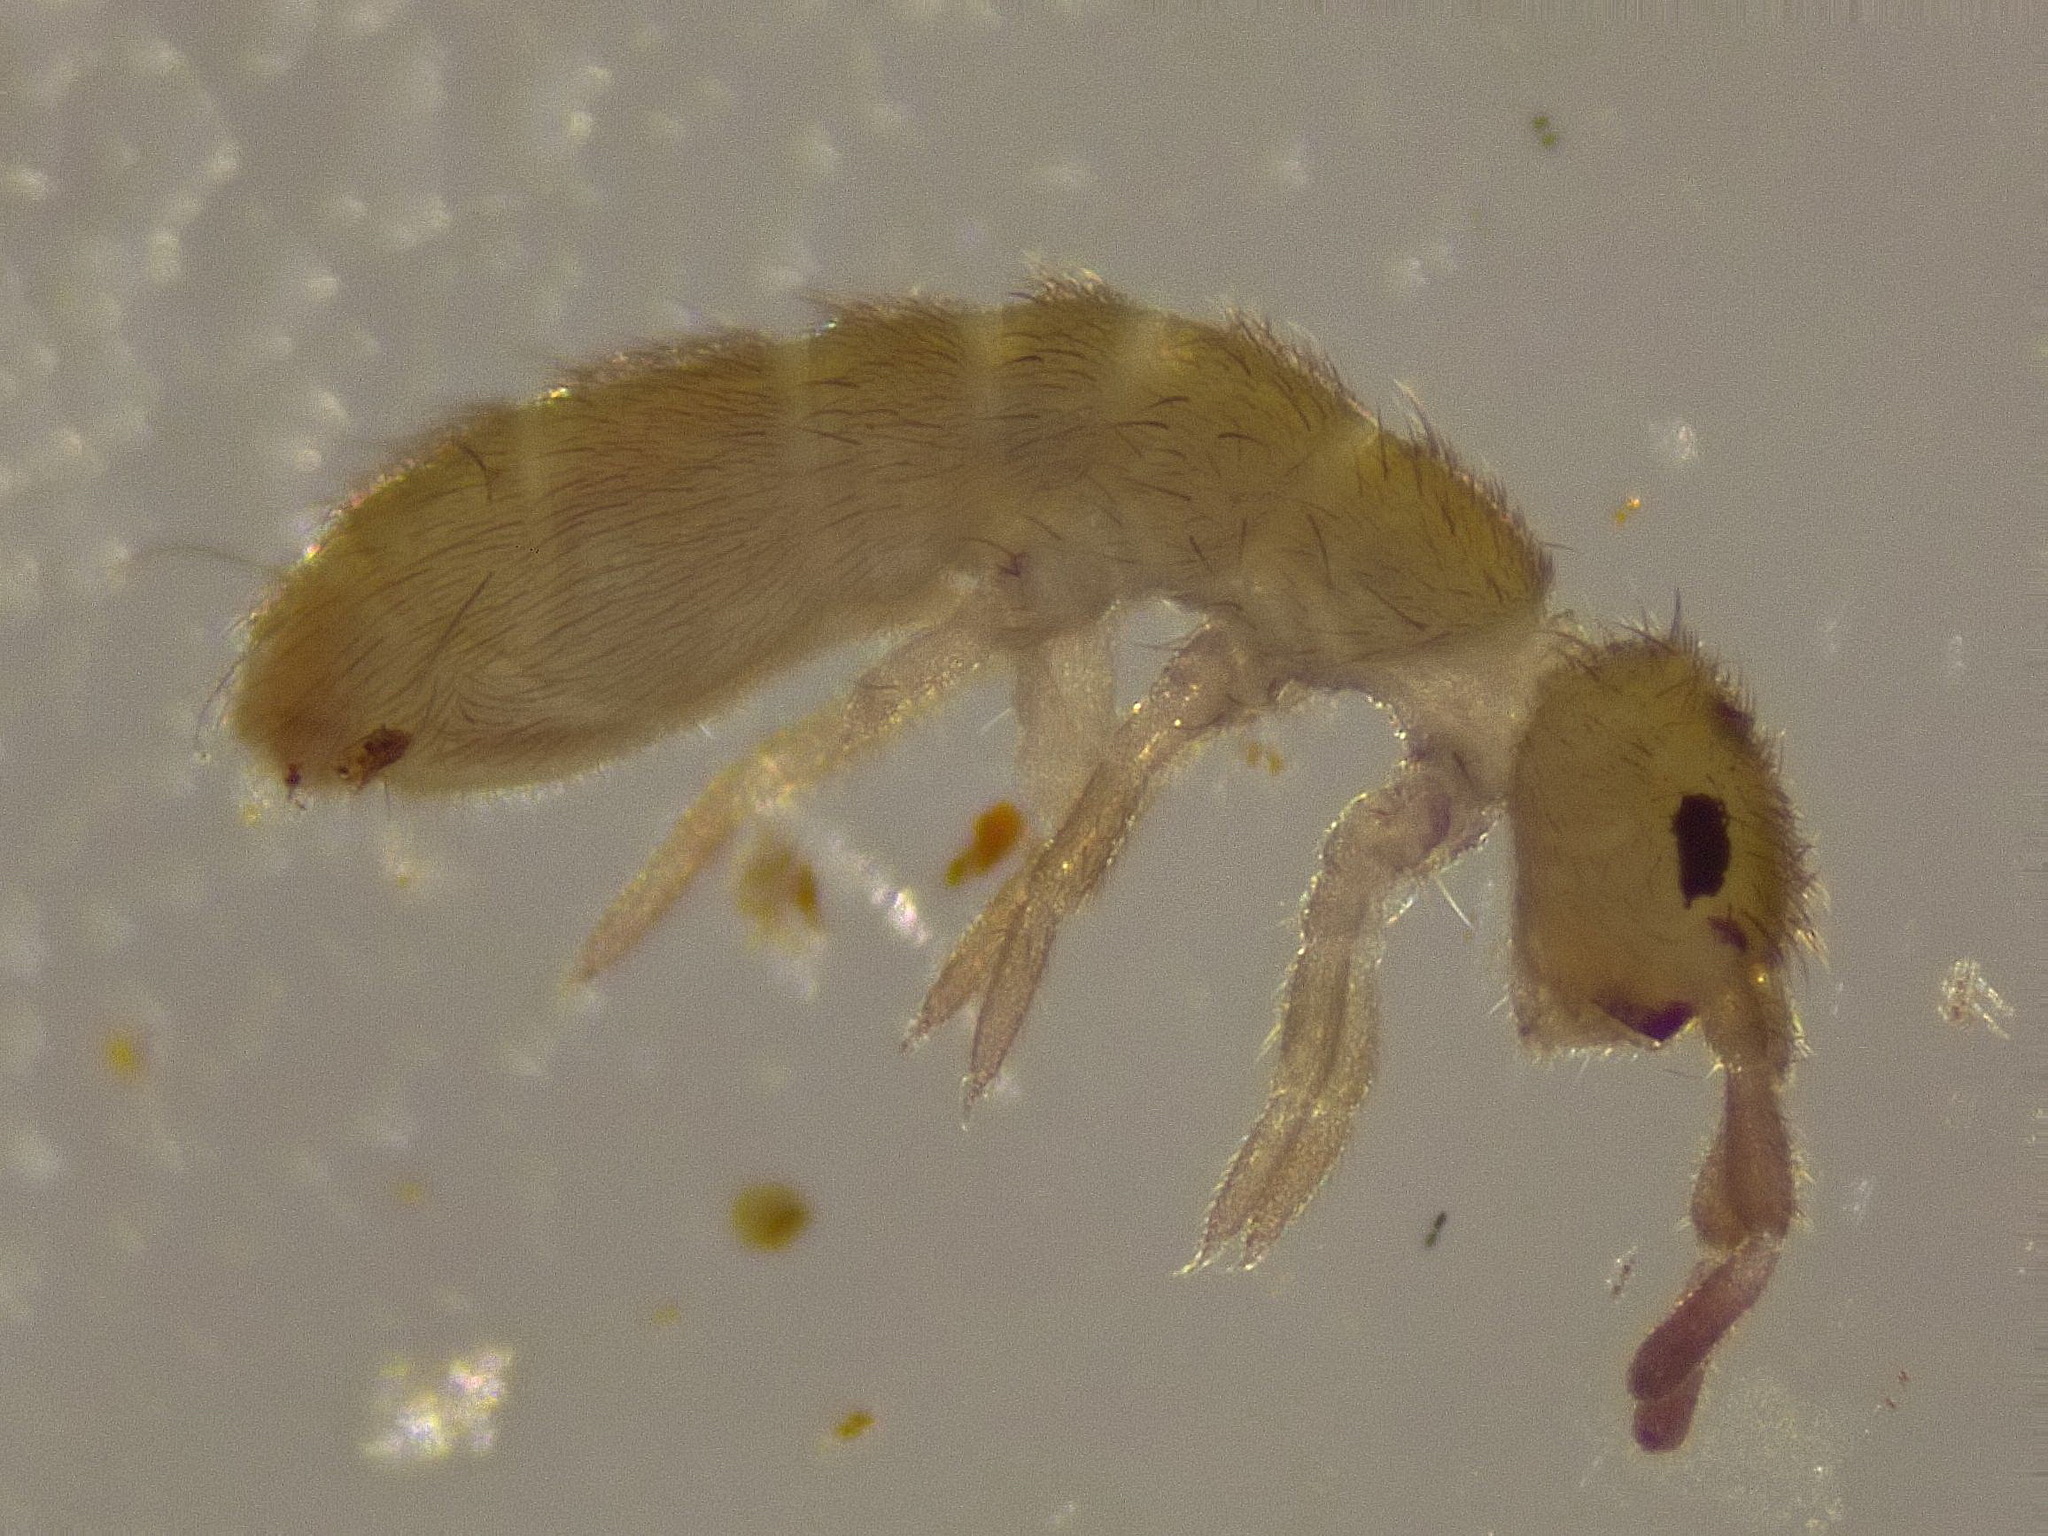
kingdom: Animalia
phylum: Arthropoda
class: Collembola
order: Entomobryomorpha
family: Isotomidae
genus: Isotoma
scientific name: Isotoma viridis
